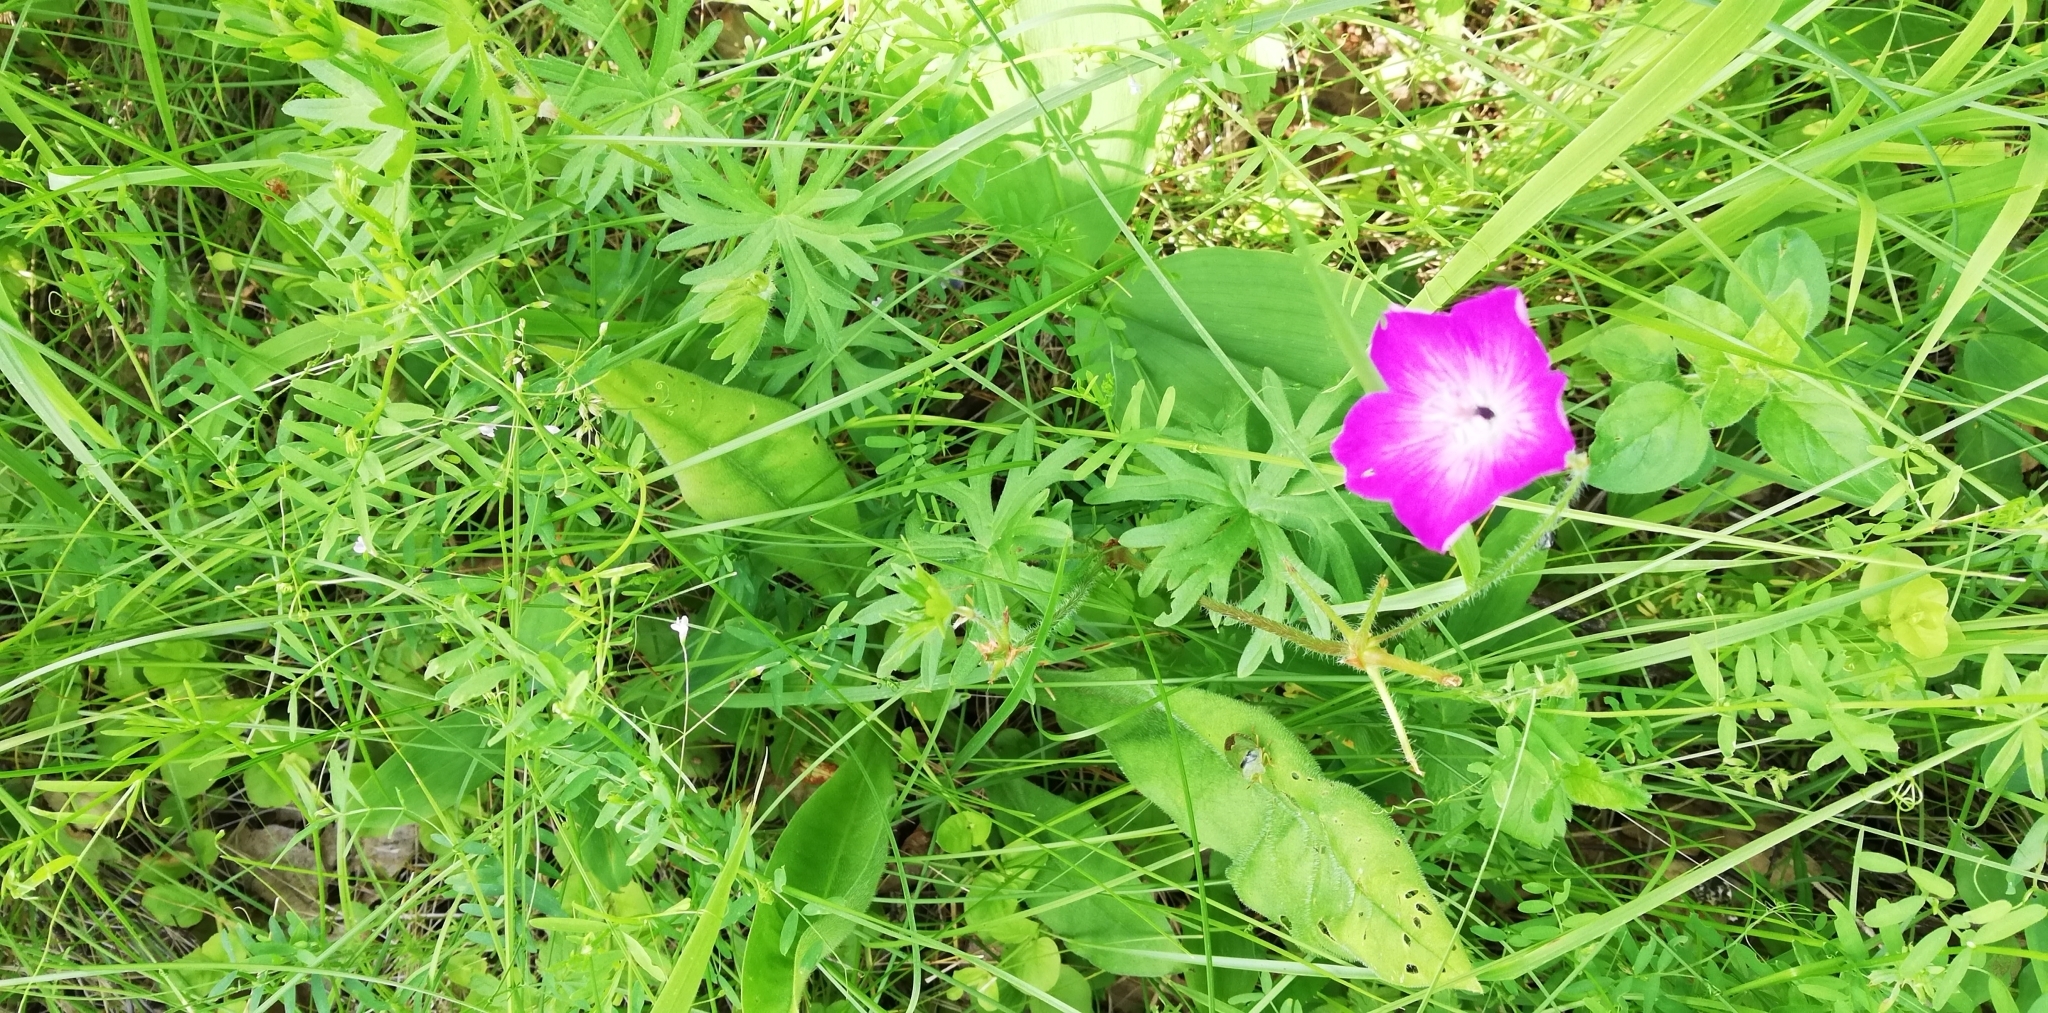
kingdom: Plantae
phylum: Tracheophyta
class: Magnoliopsida
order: Geraniales
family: Geraniaceae
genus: Geranium
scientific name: Geranium sanguineum
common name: Bloody crane's-bill
